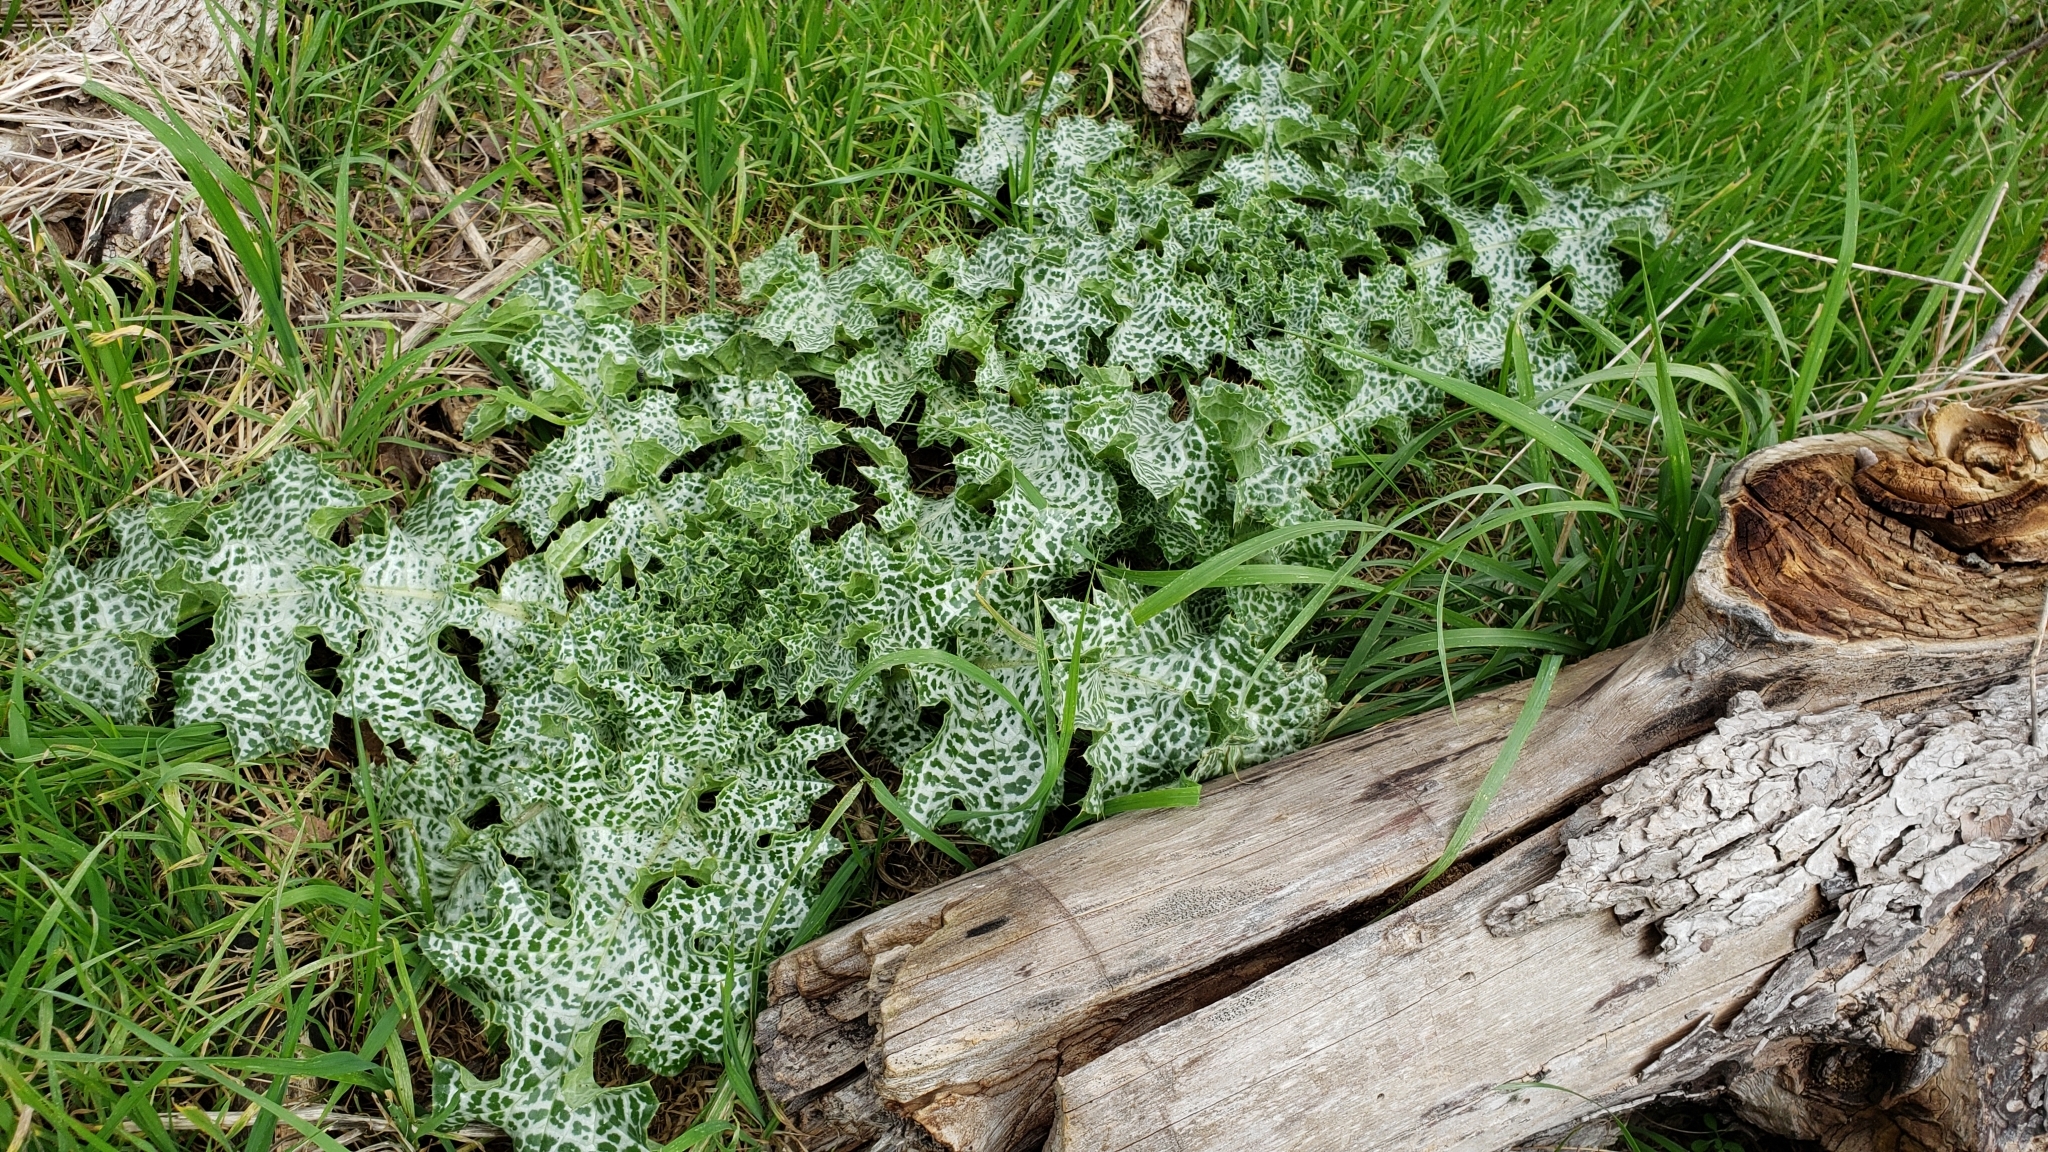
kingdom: Plantae
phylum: Tracheophyta
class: Magnoliopsida
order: Asterales
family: Asteraceae
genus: Silybum
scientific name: Silybum marianum
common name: Milk thistle
